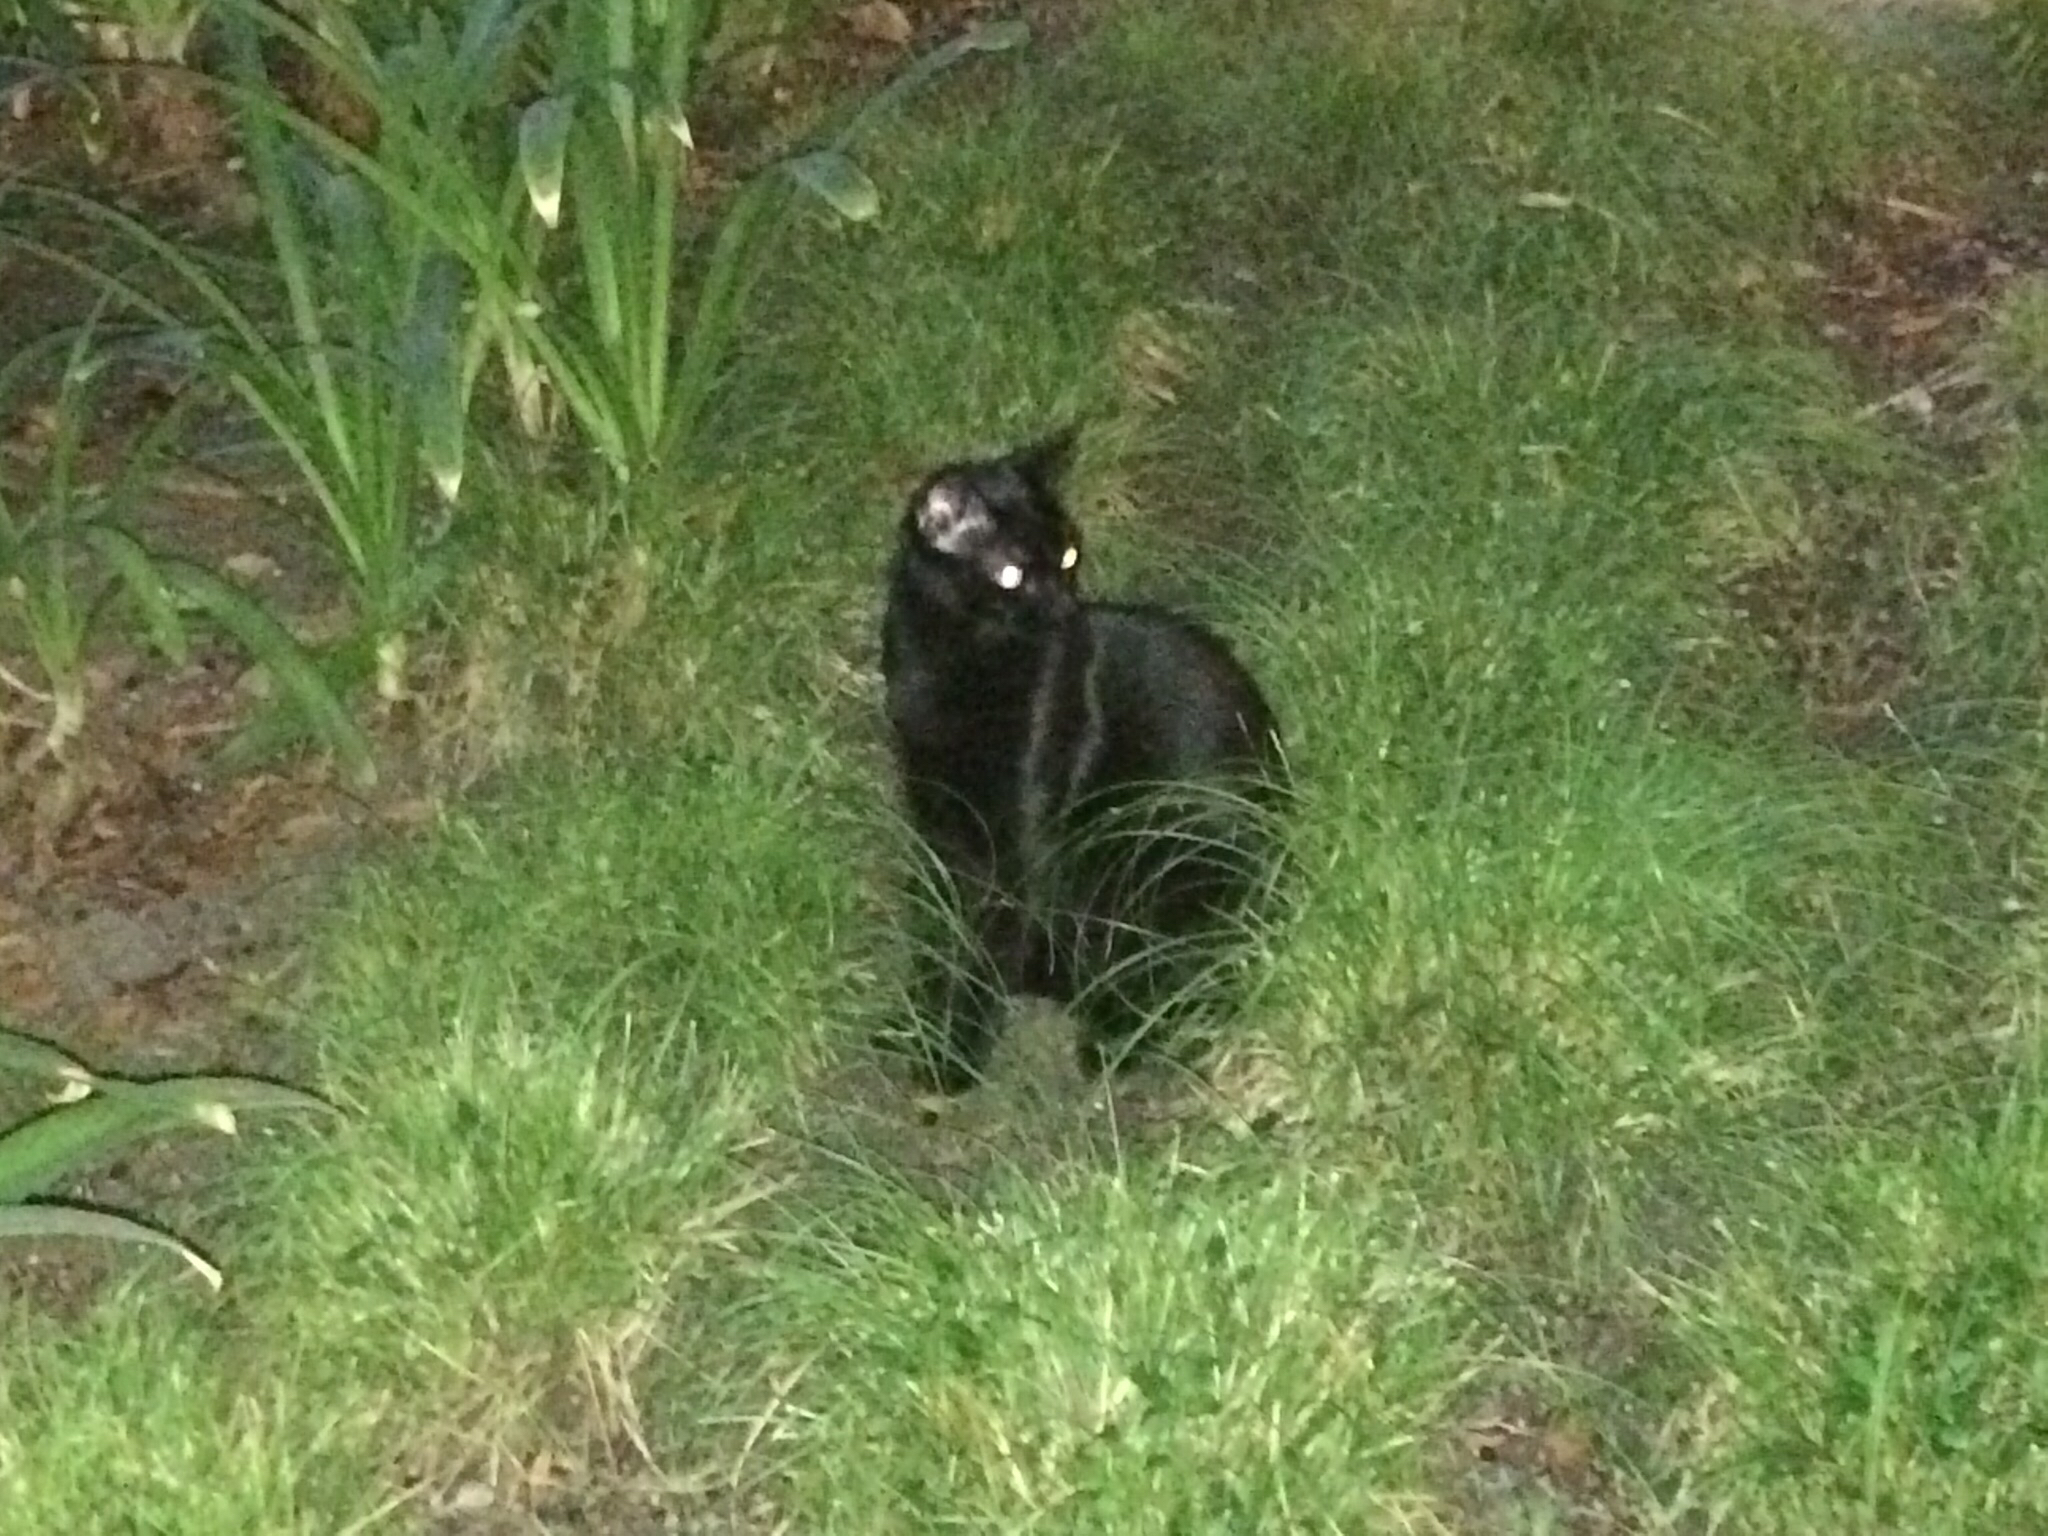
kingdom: Animalia
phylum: Chordata
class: Mammalia
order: Carnivora
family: Felidae
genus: Felis
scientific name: Felis catus
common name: Domestic cat
